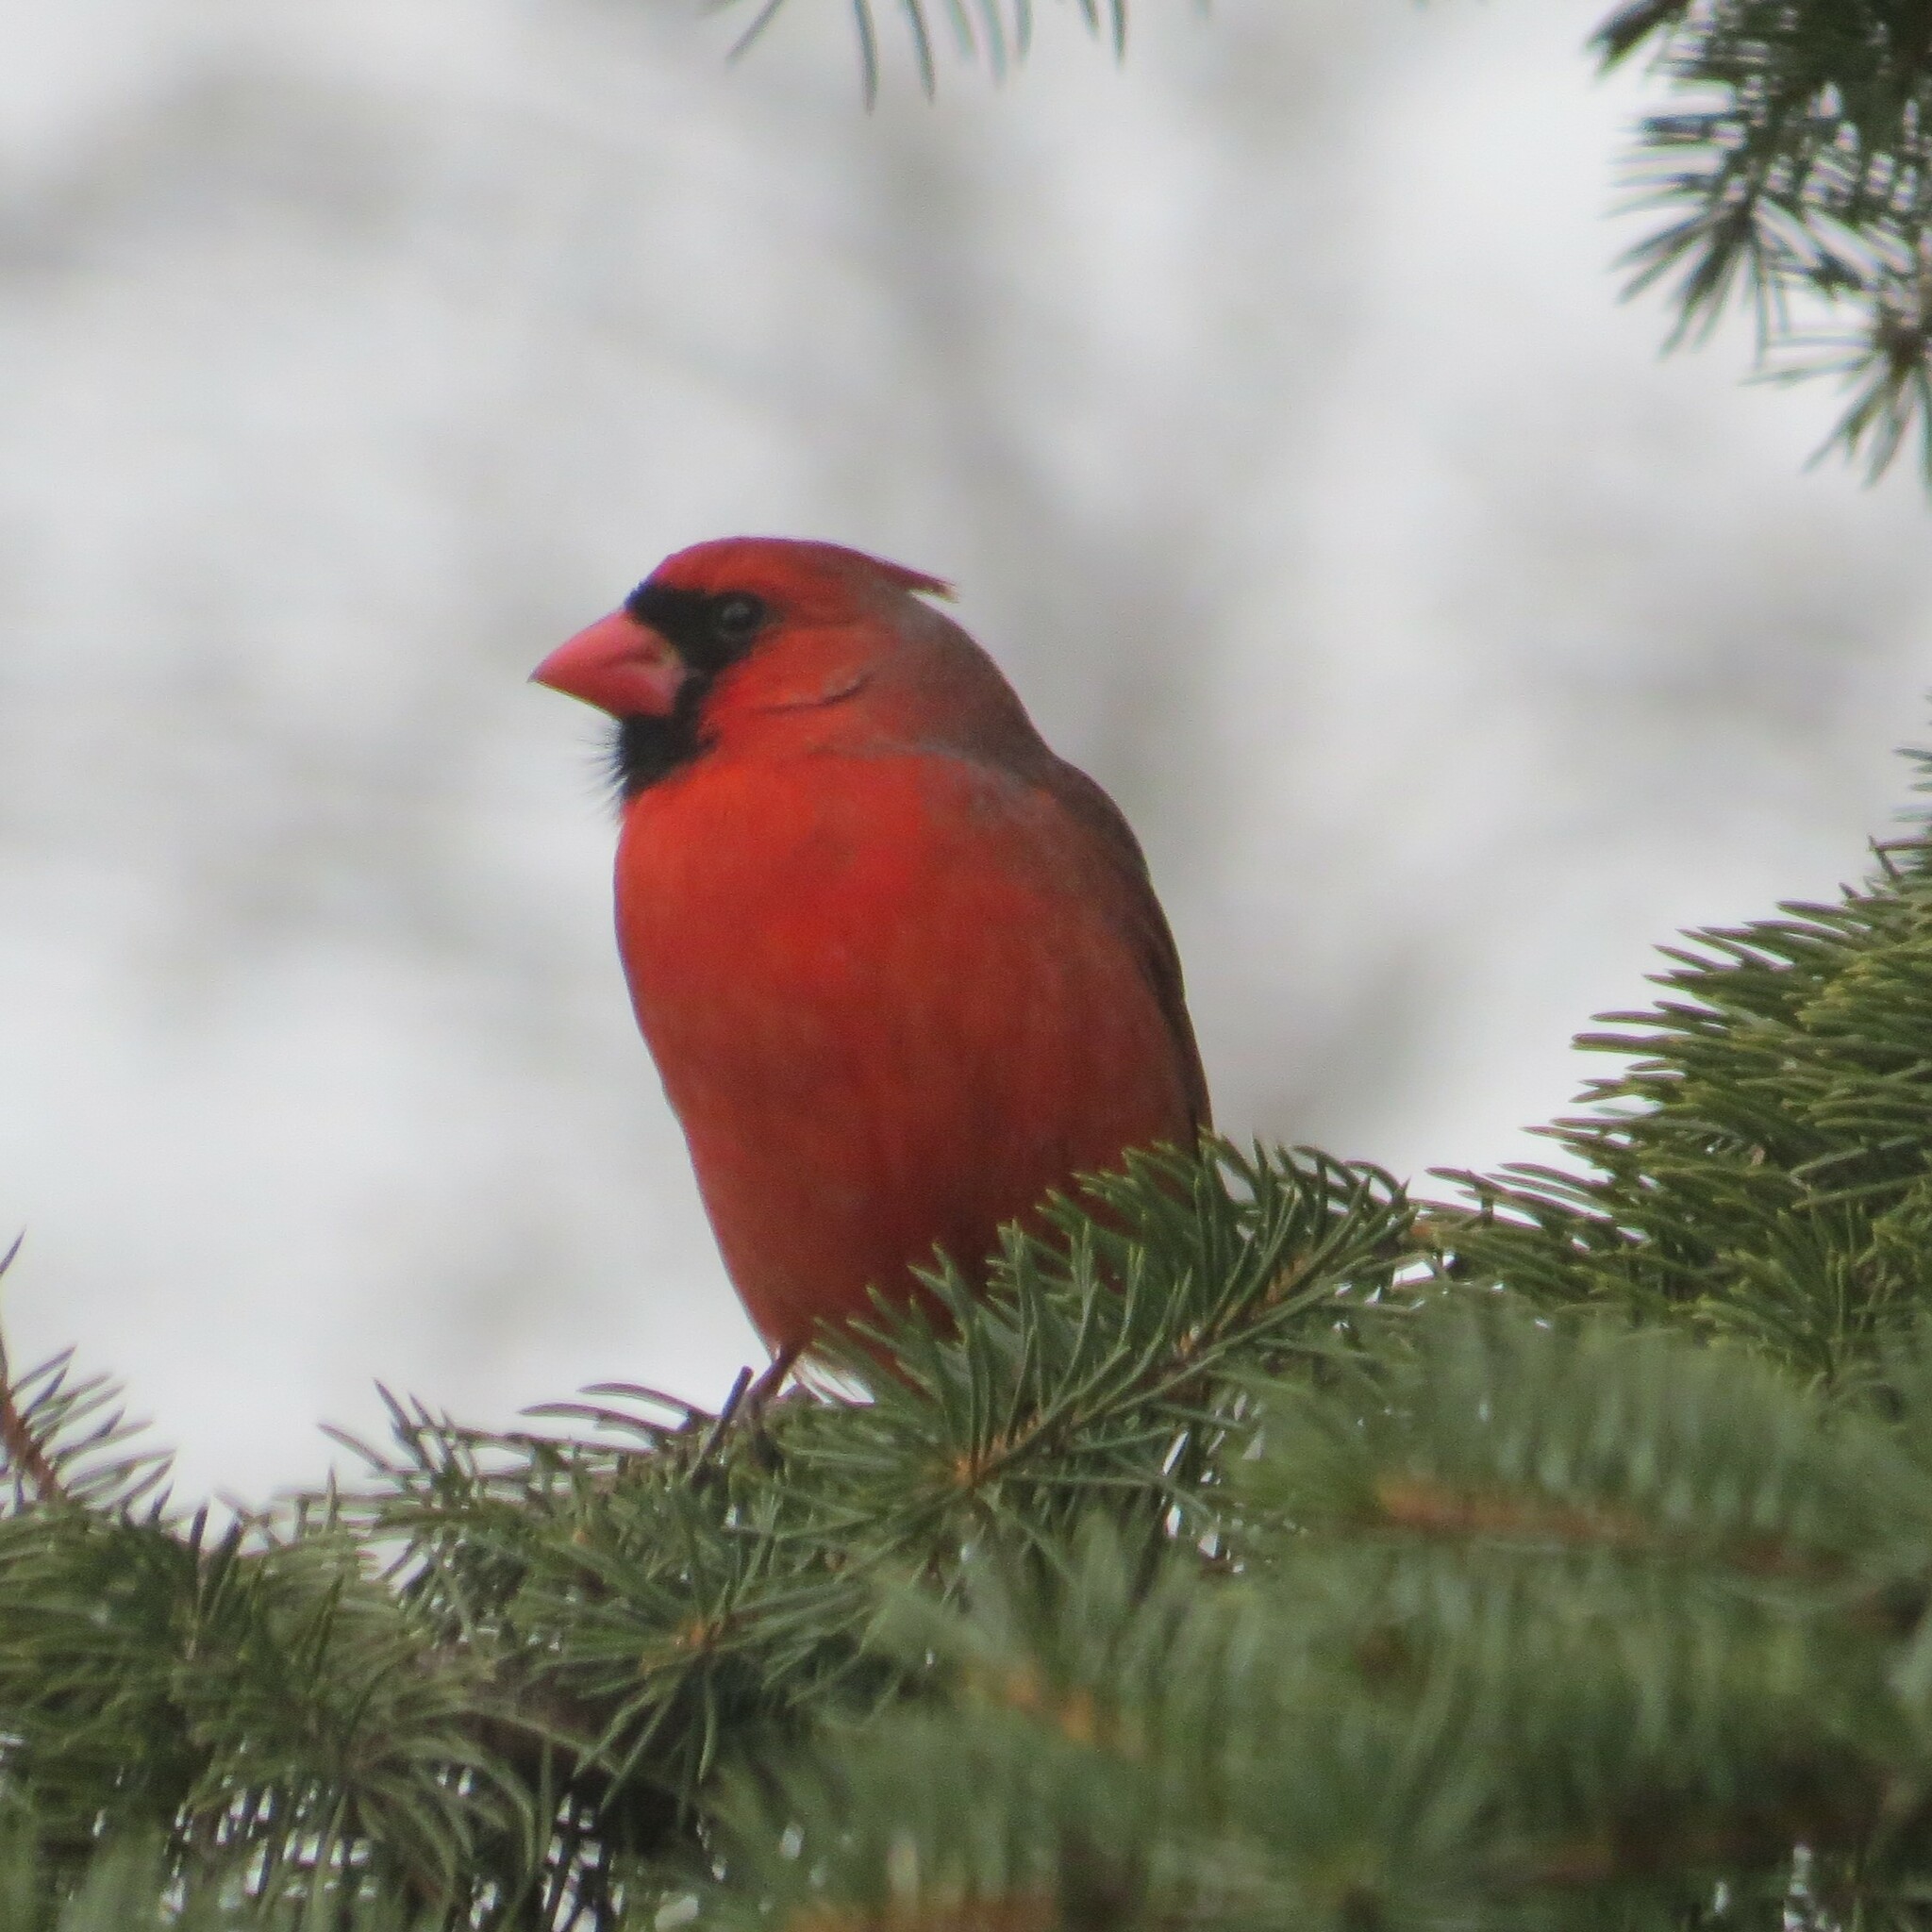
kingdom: Animalia
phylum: Chordata
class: Aves
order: Passeriformes
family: Cardinalidae
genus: Cardinalis
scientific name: Cardinalis cardinalis
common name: Northern cardinal
